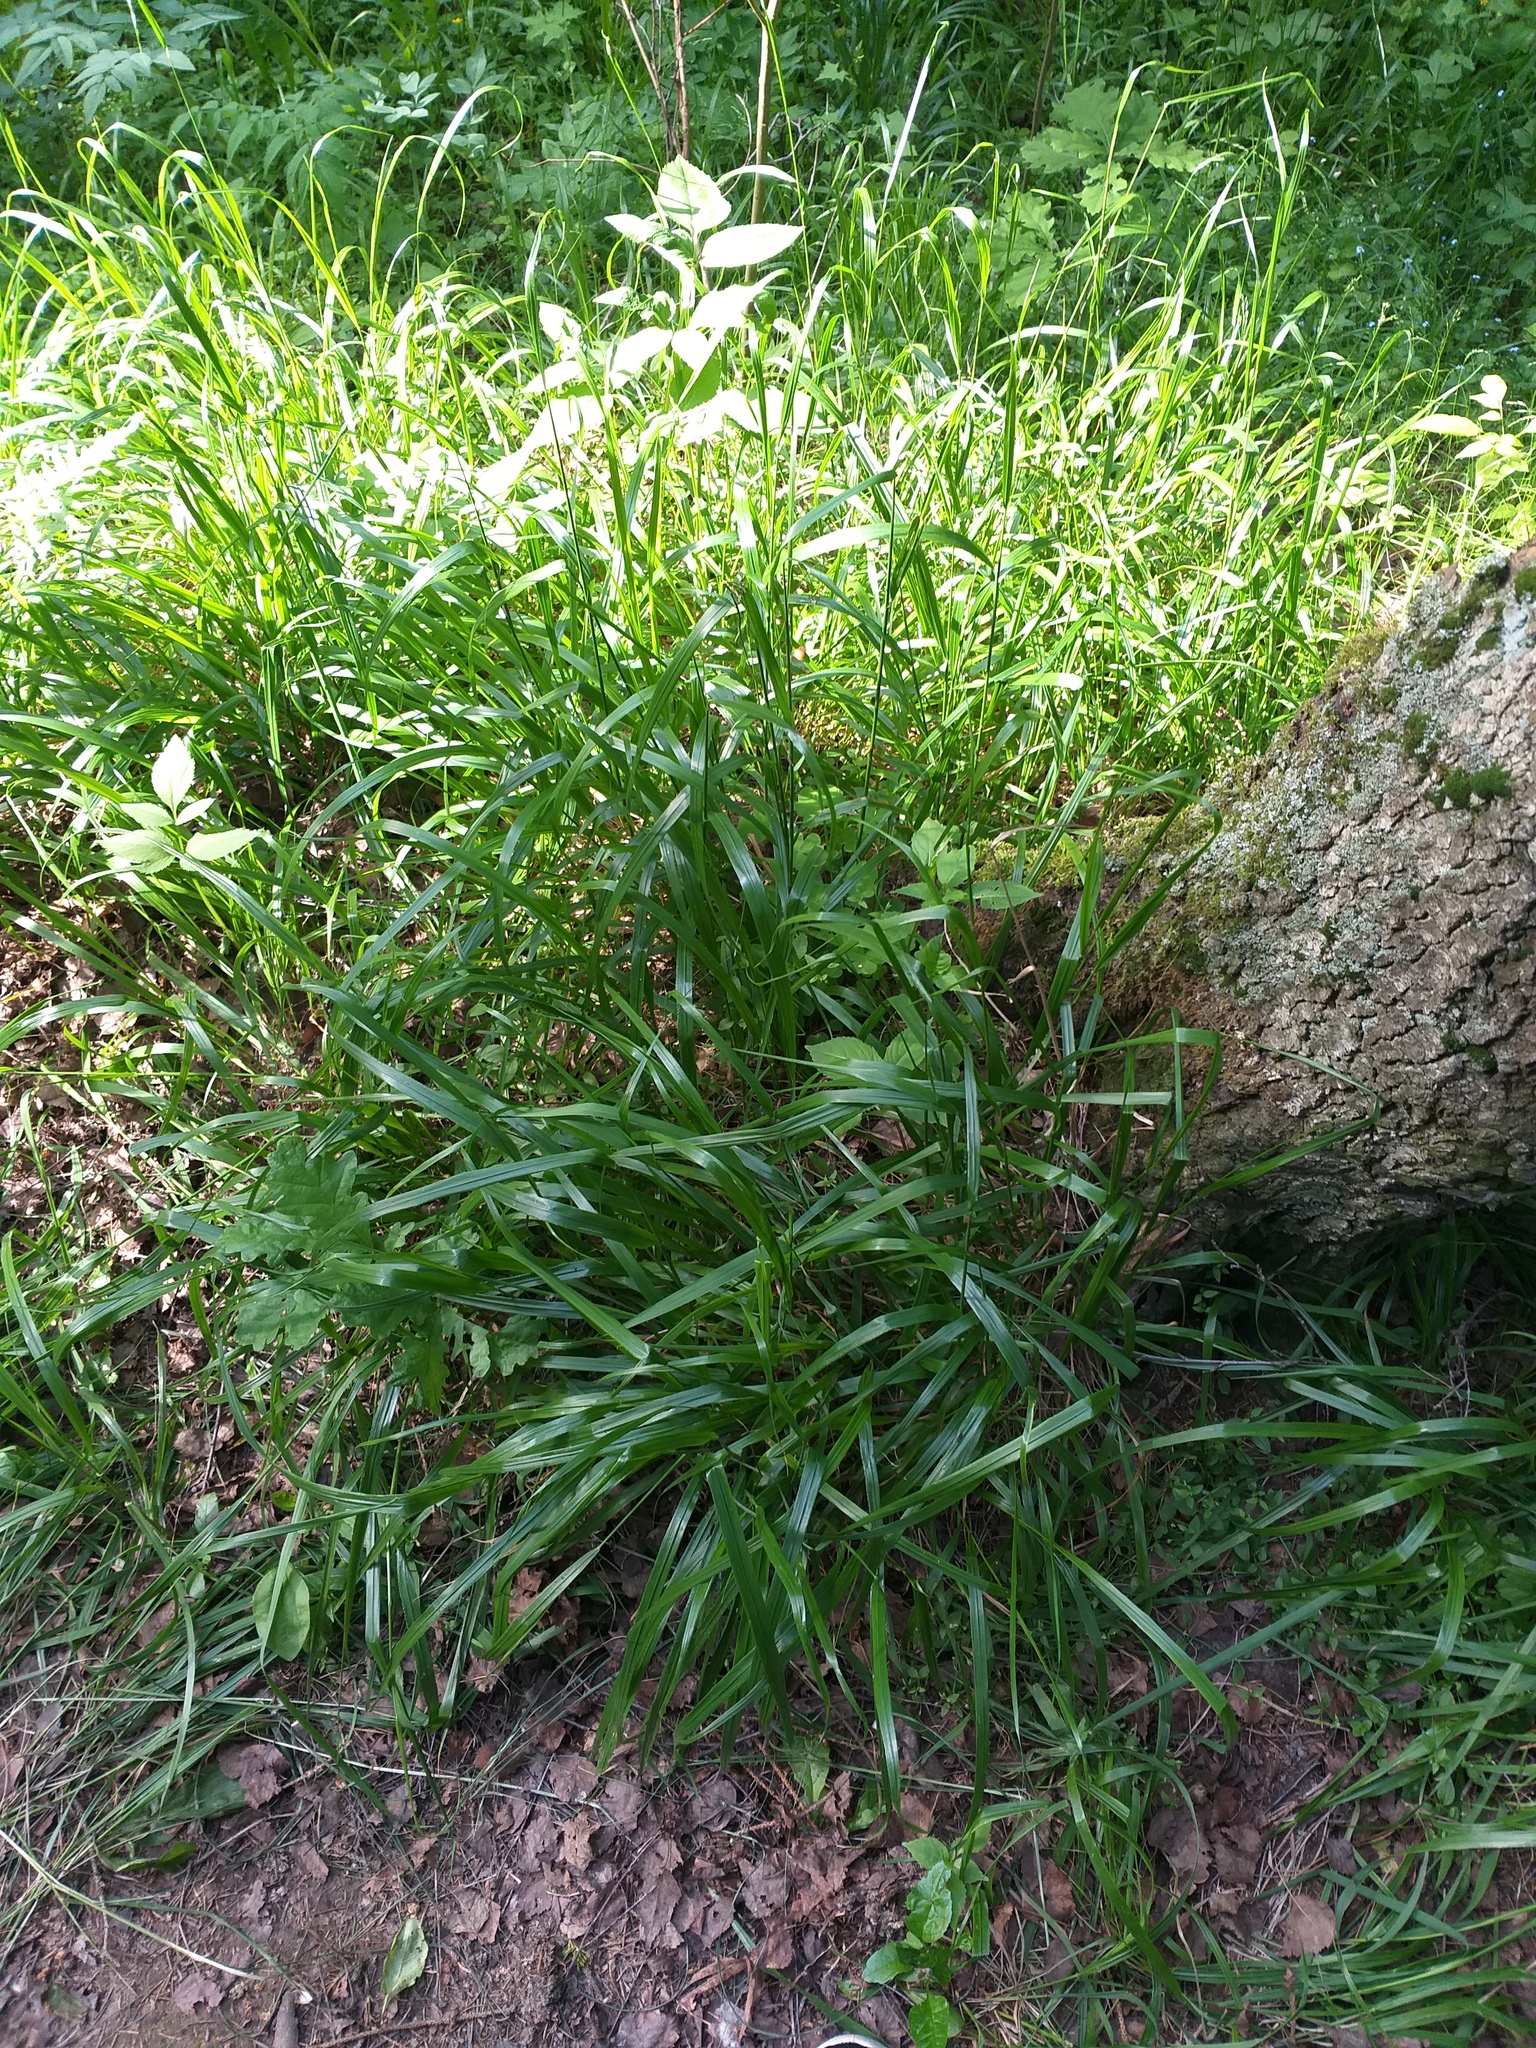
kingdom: Plantae
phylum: Tracheophyta
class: Liliopsida
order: Poales
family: Poaceae
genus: Calamagrostis
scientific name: Calamagrostis arundinacea
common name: Metskastik
